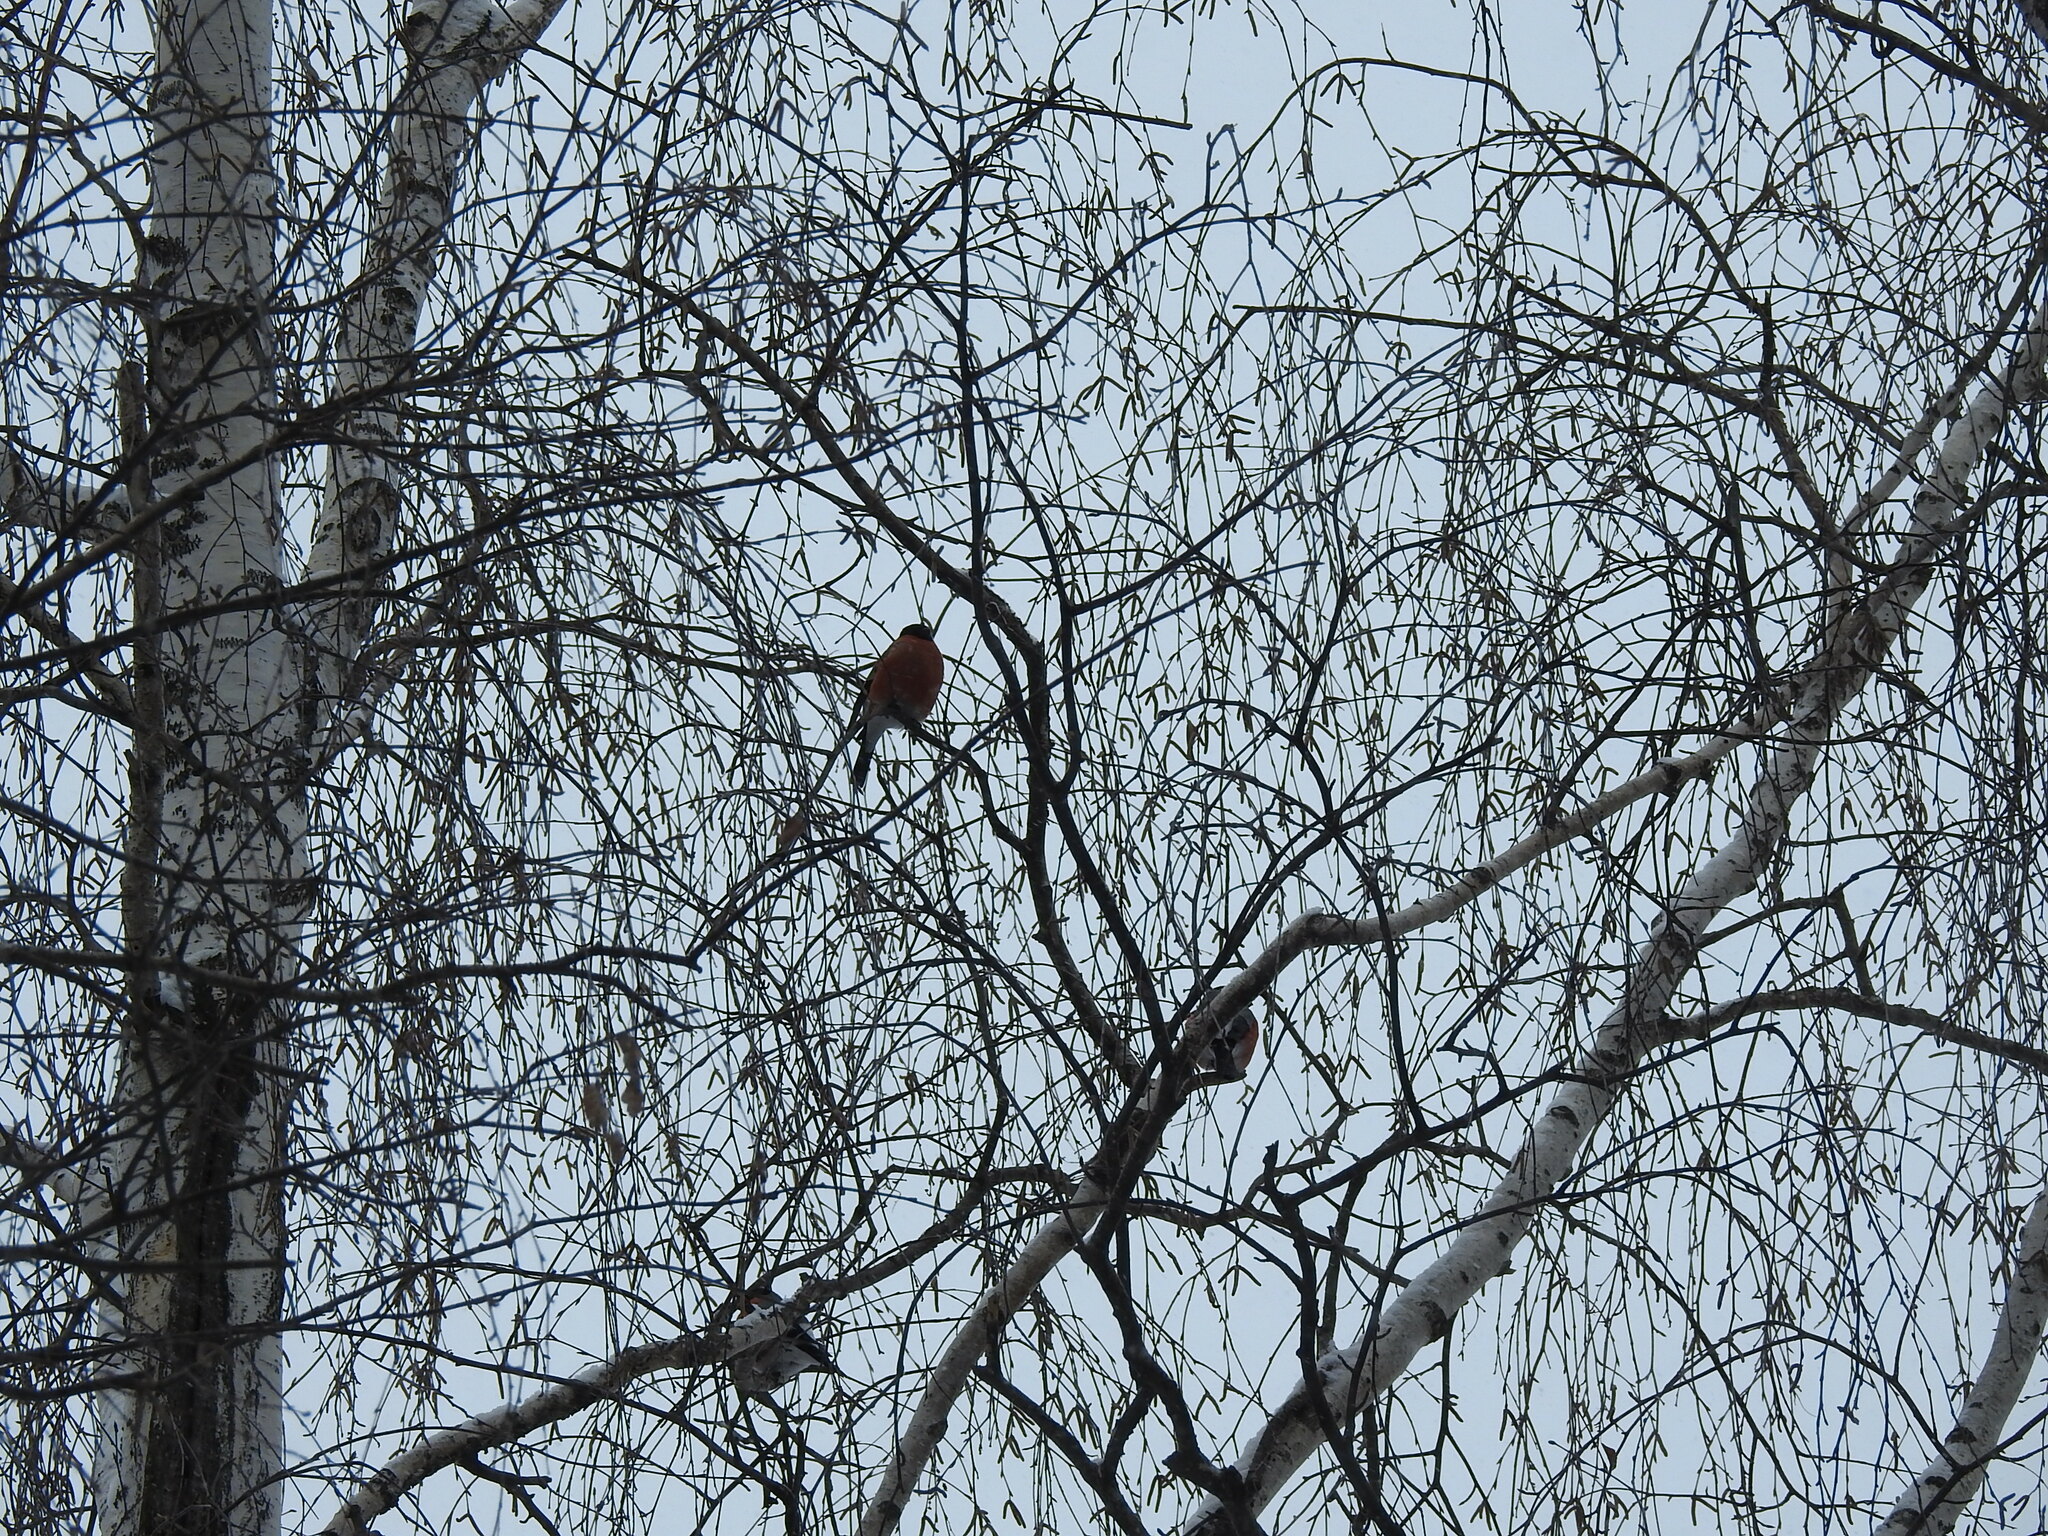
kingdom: Animalia
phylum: Chordata
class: Aves
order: Passeriformes
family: Fringillidae
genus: Pyrrhula
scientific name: Pyrrhula pyrrhula
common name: Eurasian bullfinch
